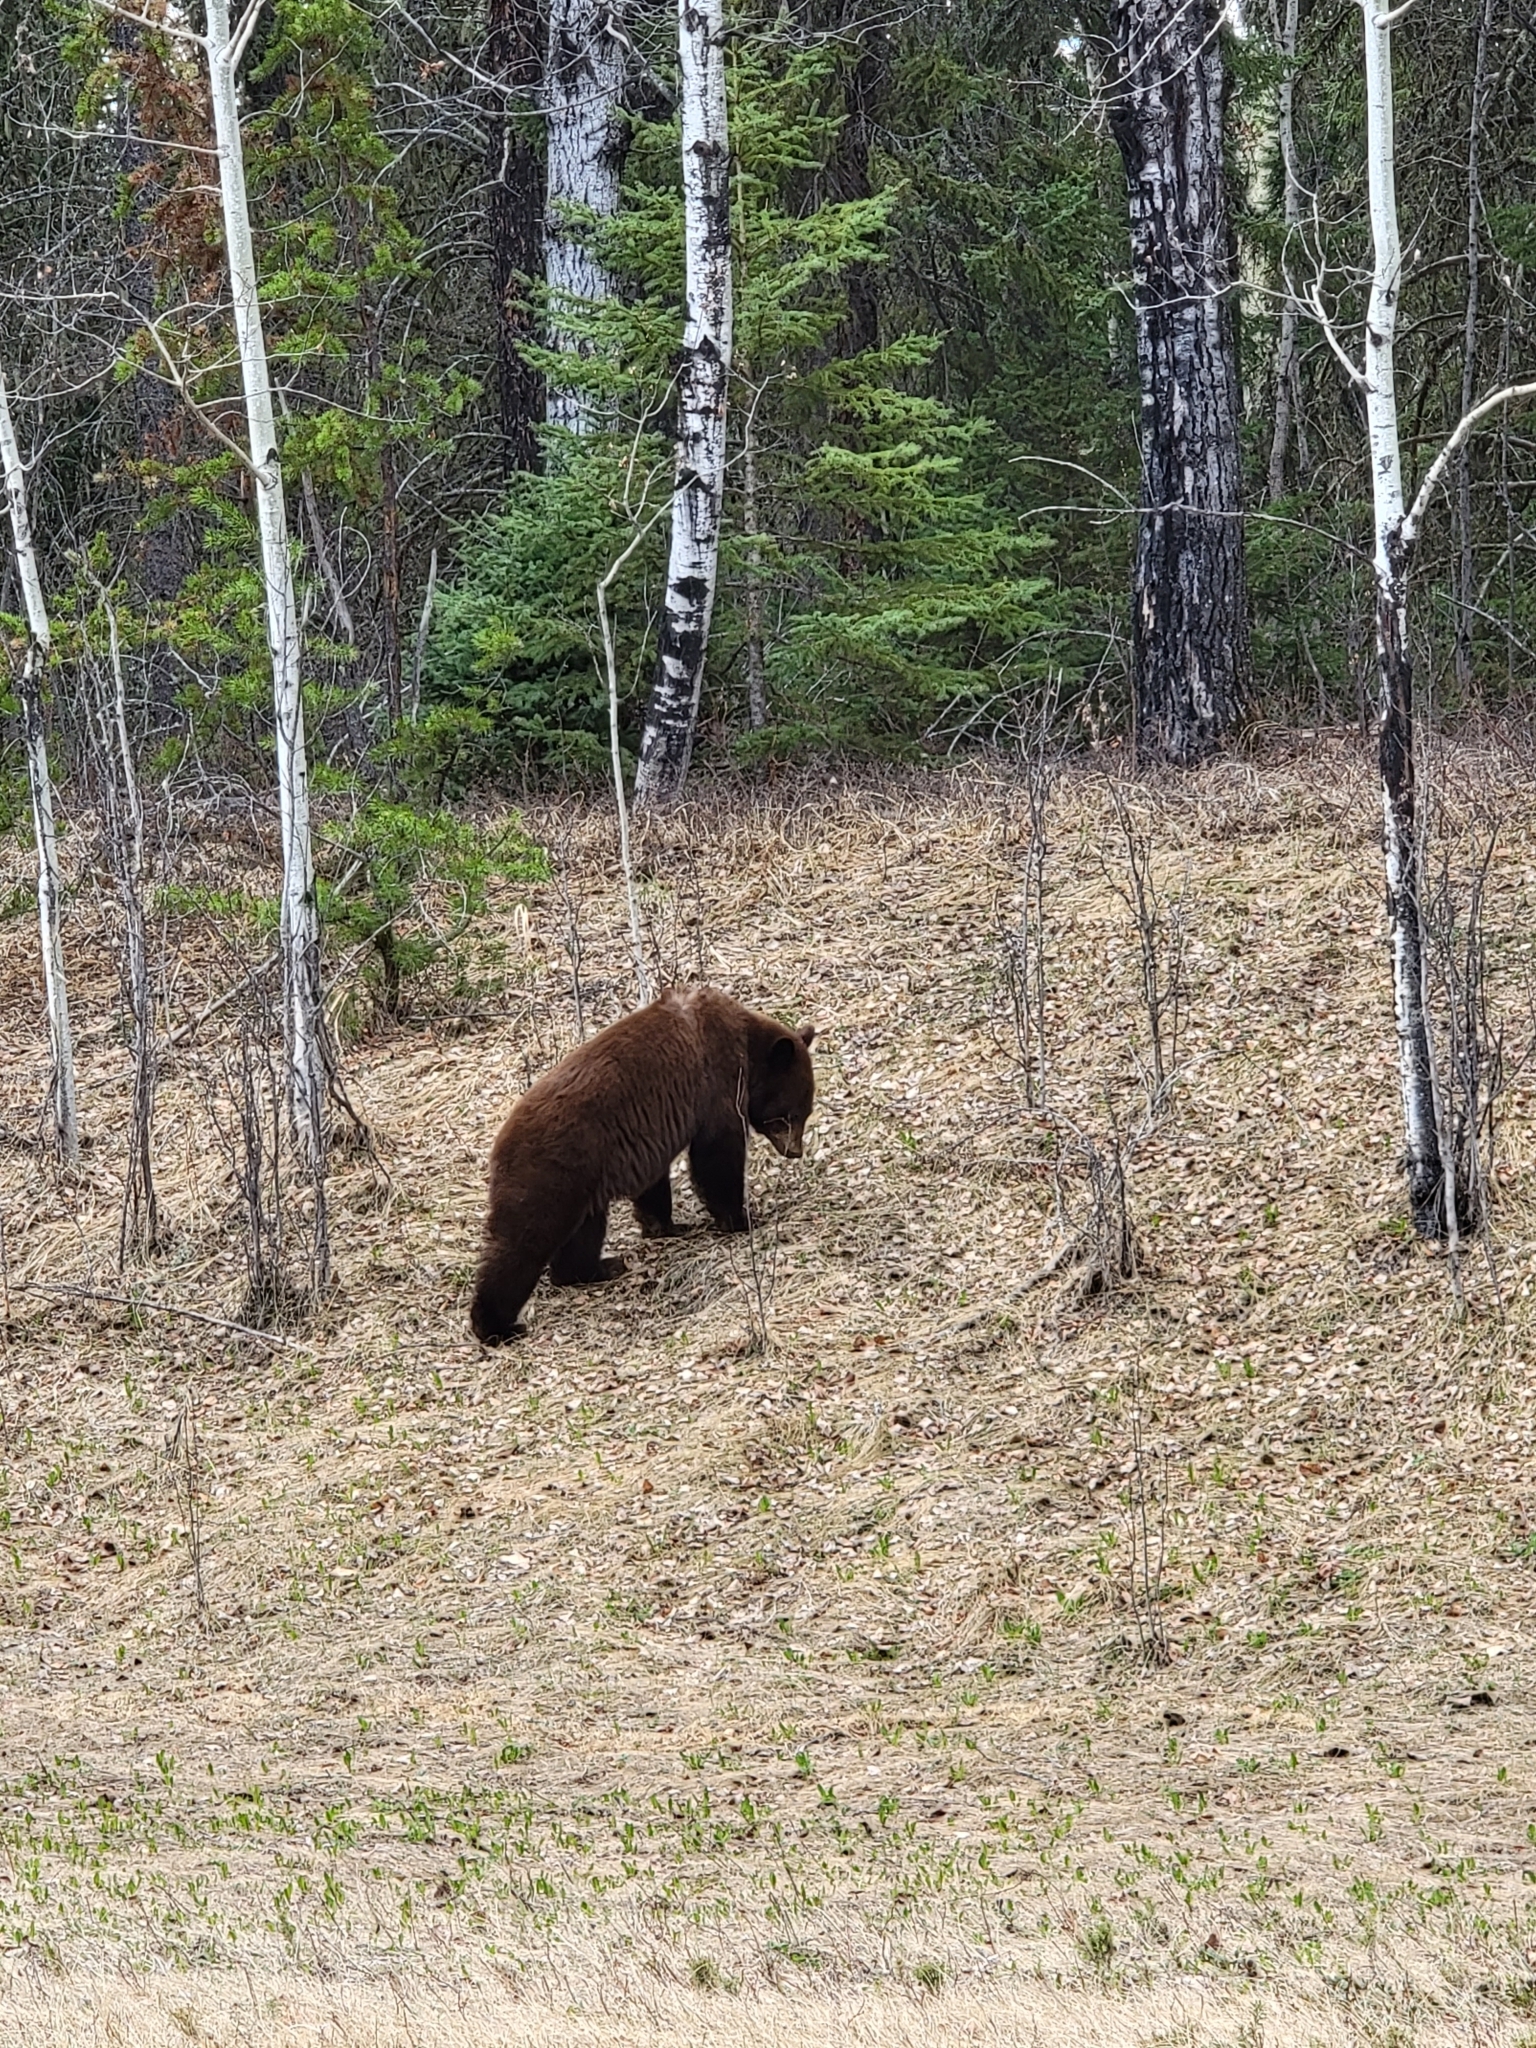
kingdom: Animalia
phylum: Chordata
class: Mammalia
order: Carnivora
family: Ursidae
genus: Ursus
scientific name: Ursus americanus
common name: American black bear
